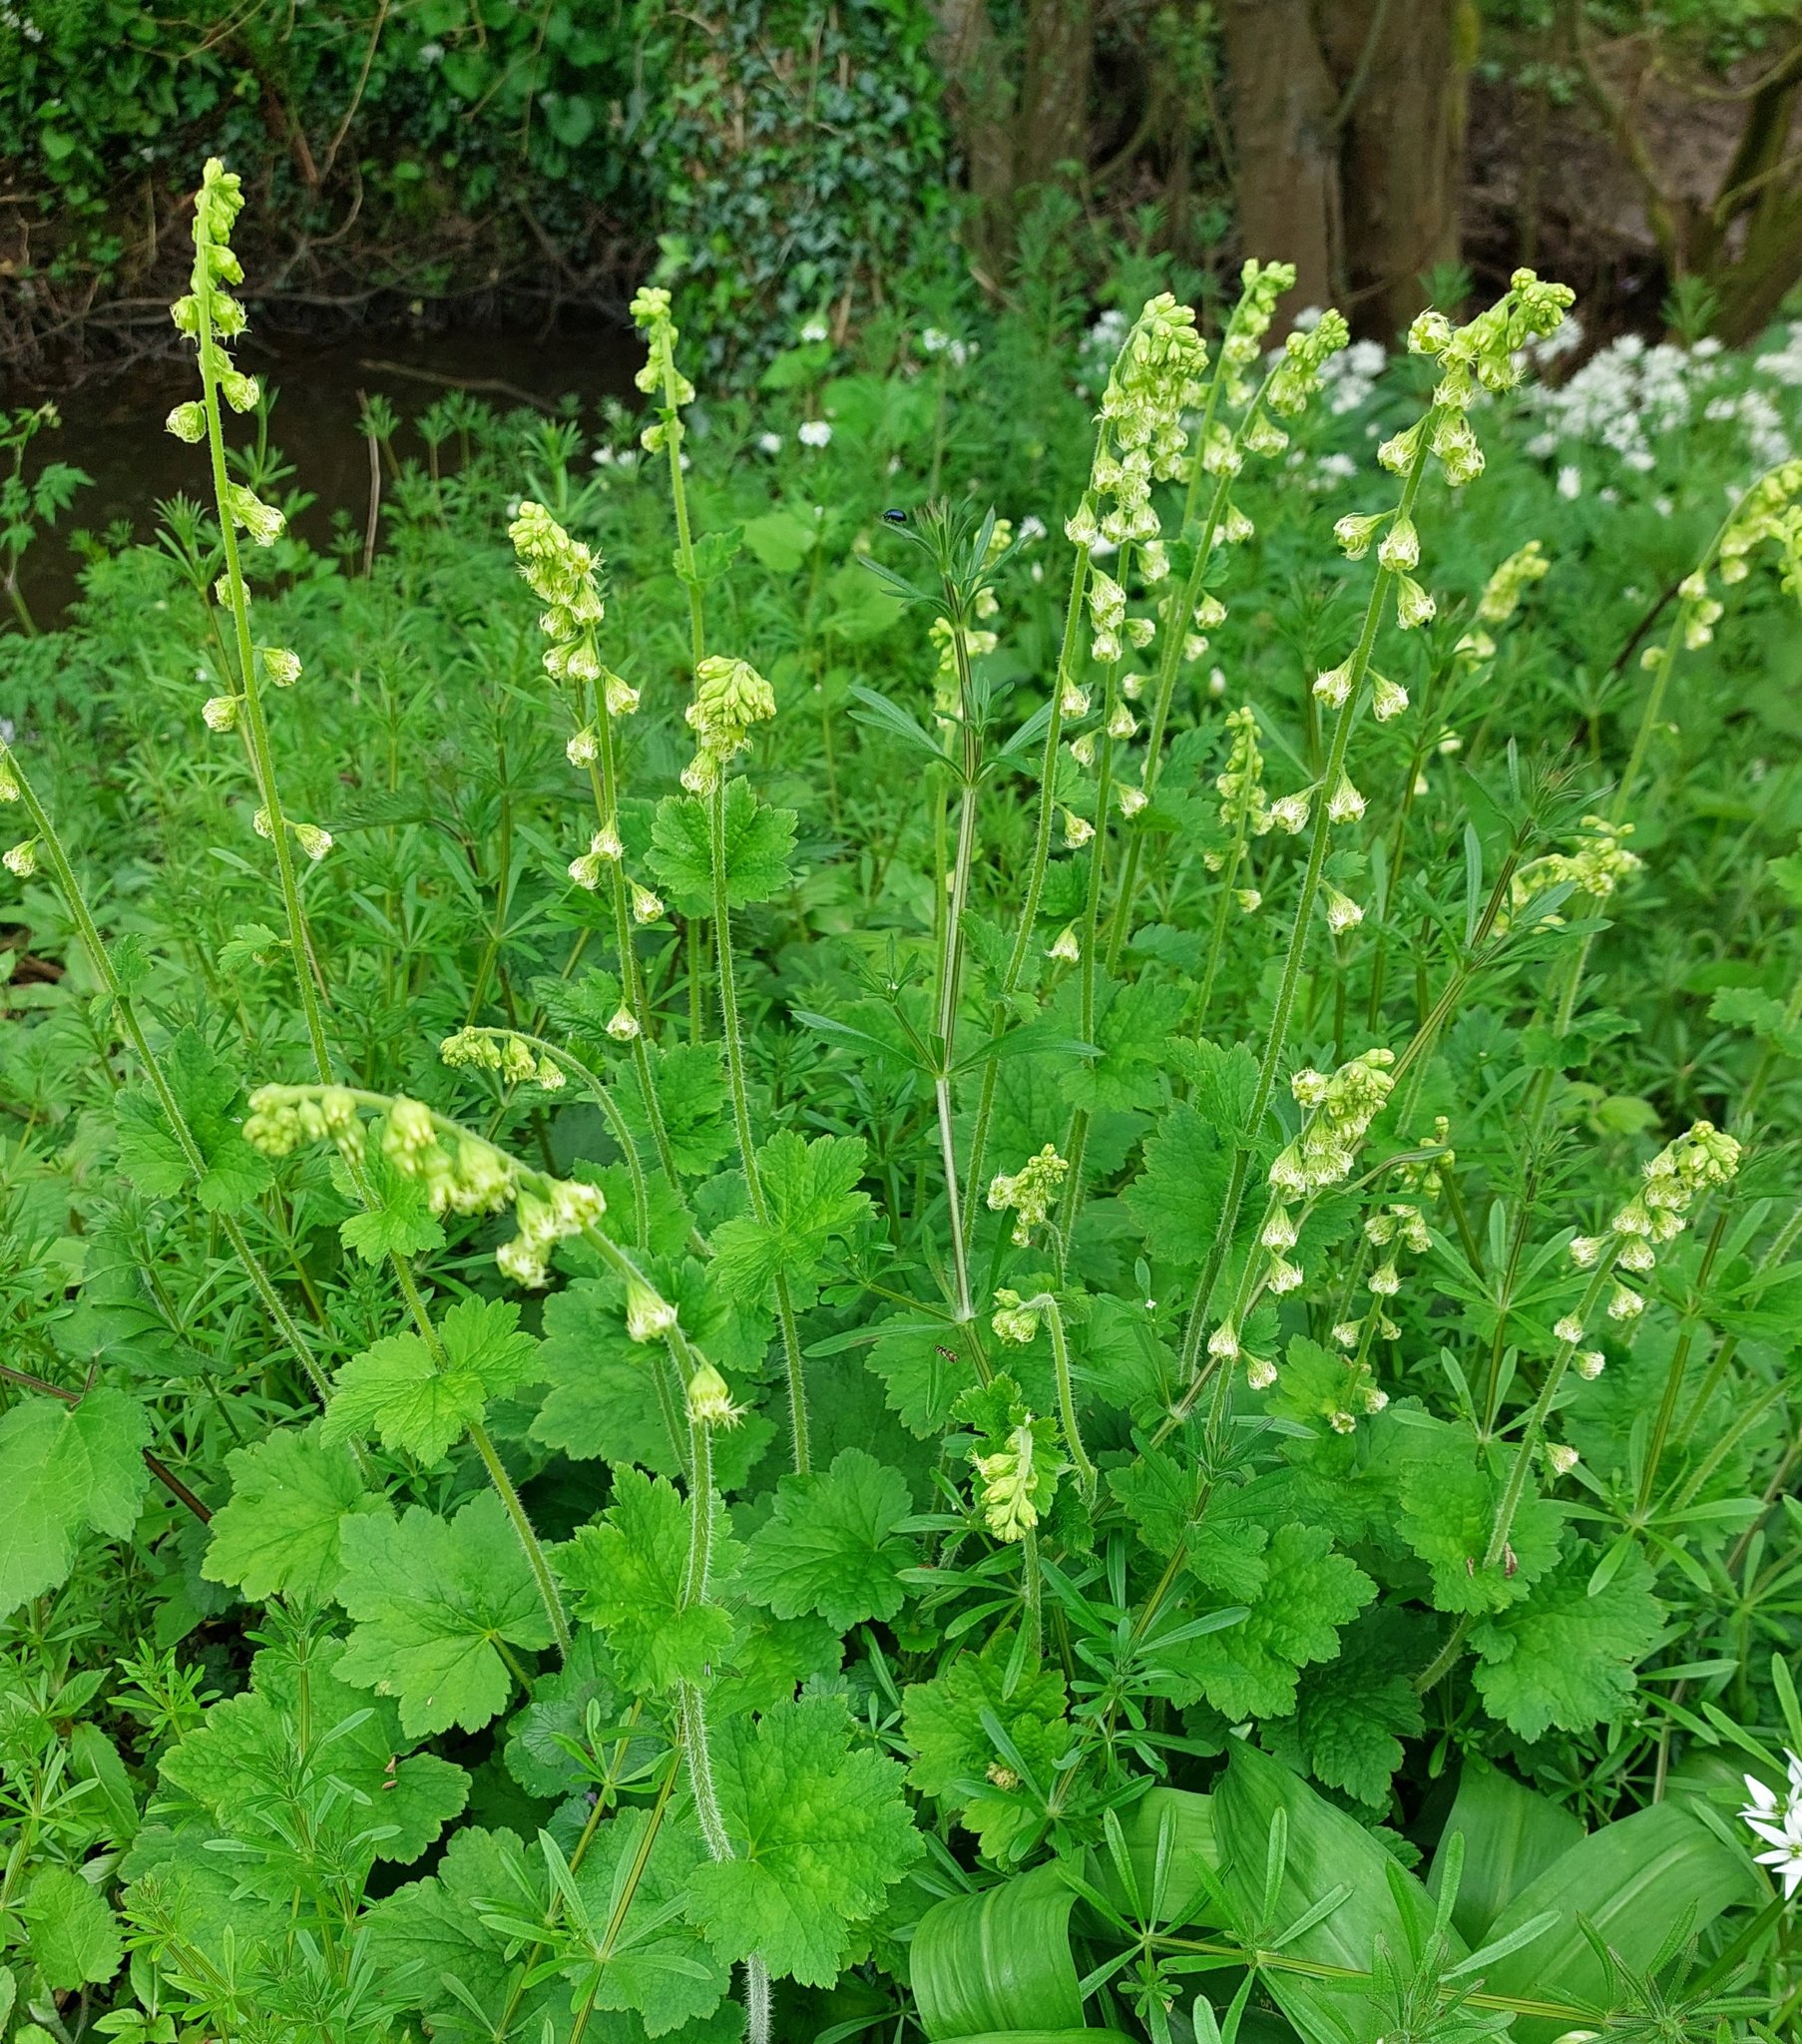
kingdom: Plantae
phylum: Tracheophyta
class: Magnoliopsida
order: Saxifragales
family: Saxifragaceae
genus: Tellima
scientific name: Tellima grandiflora
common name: Fringecups
